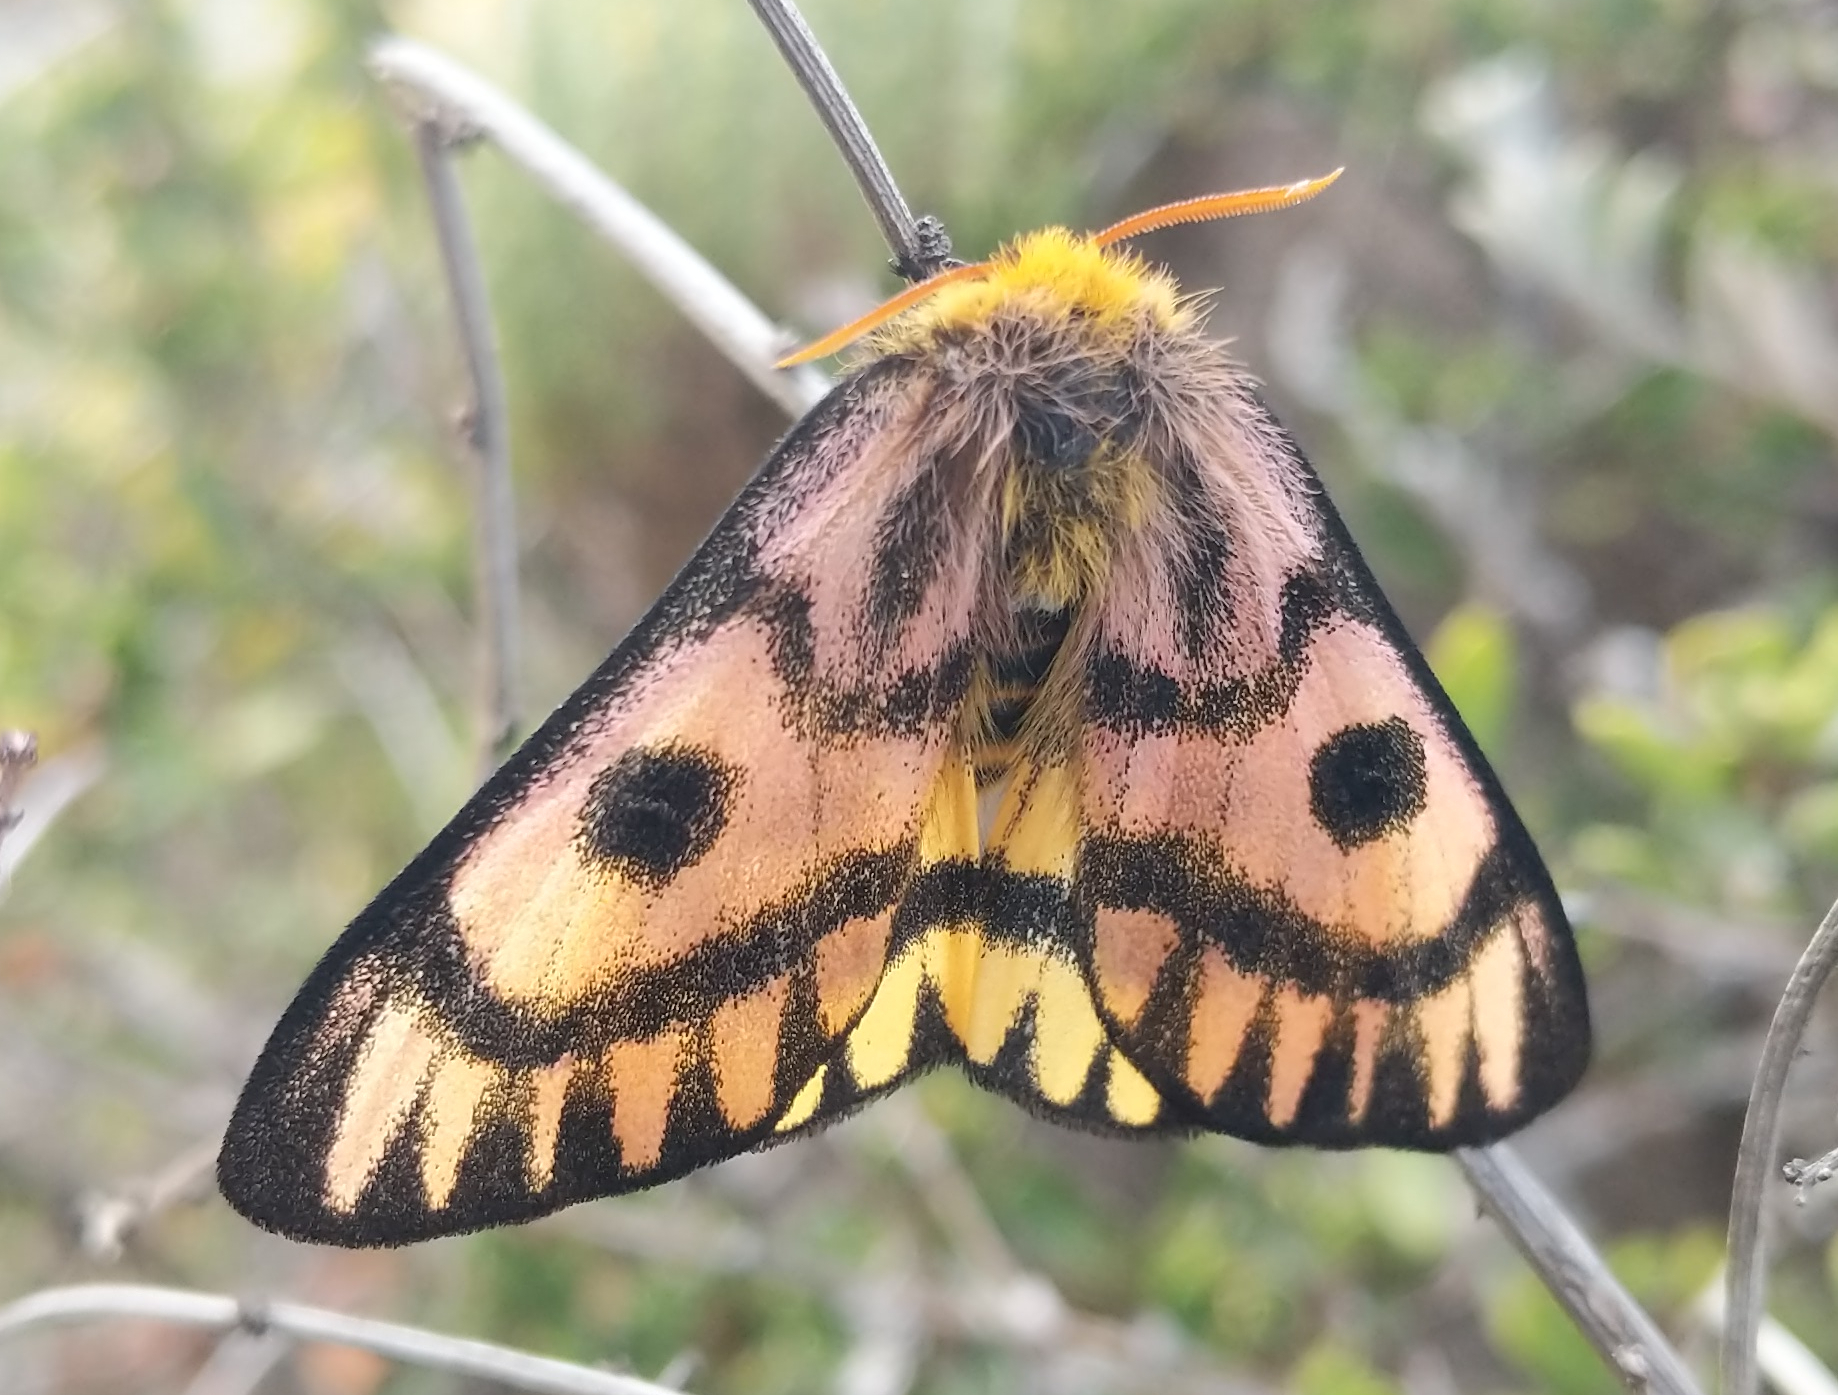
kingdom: Animalia
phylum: Arthropoda
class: Insecta
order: Lepidoptera
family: Saturniidae
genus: Hemileuca
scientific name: Hemileuca eglanterina
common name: Western sheepmoth
